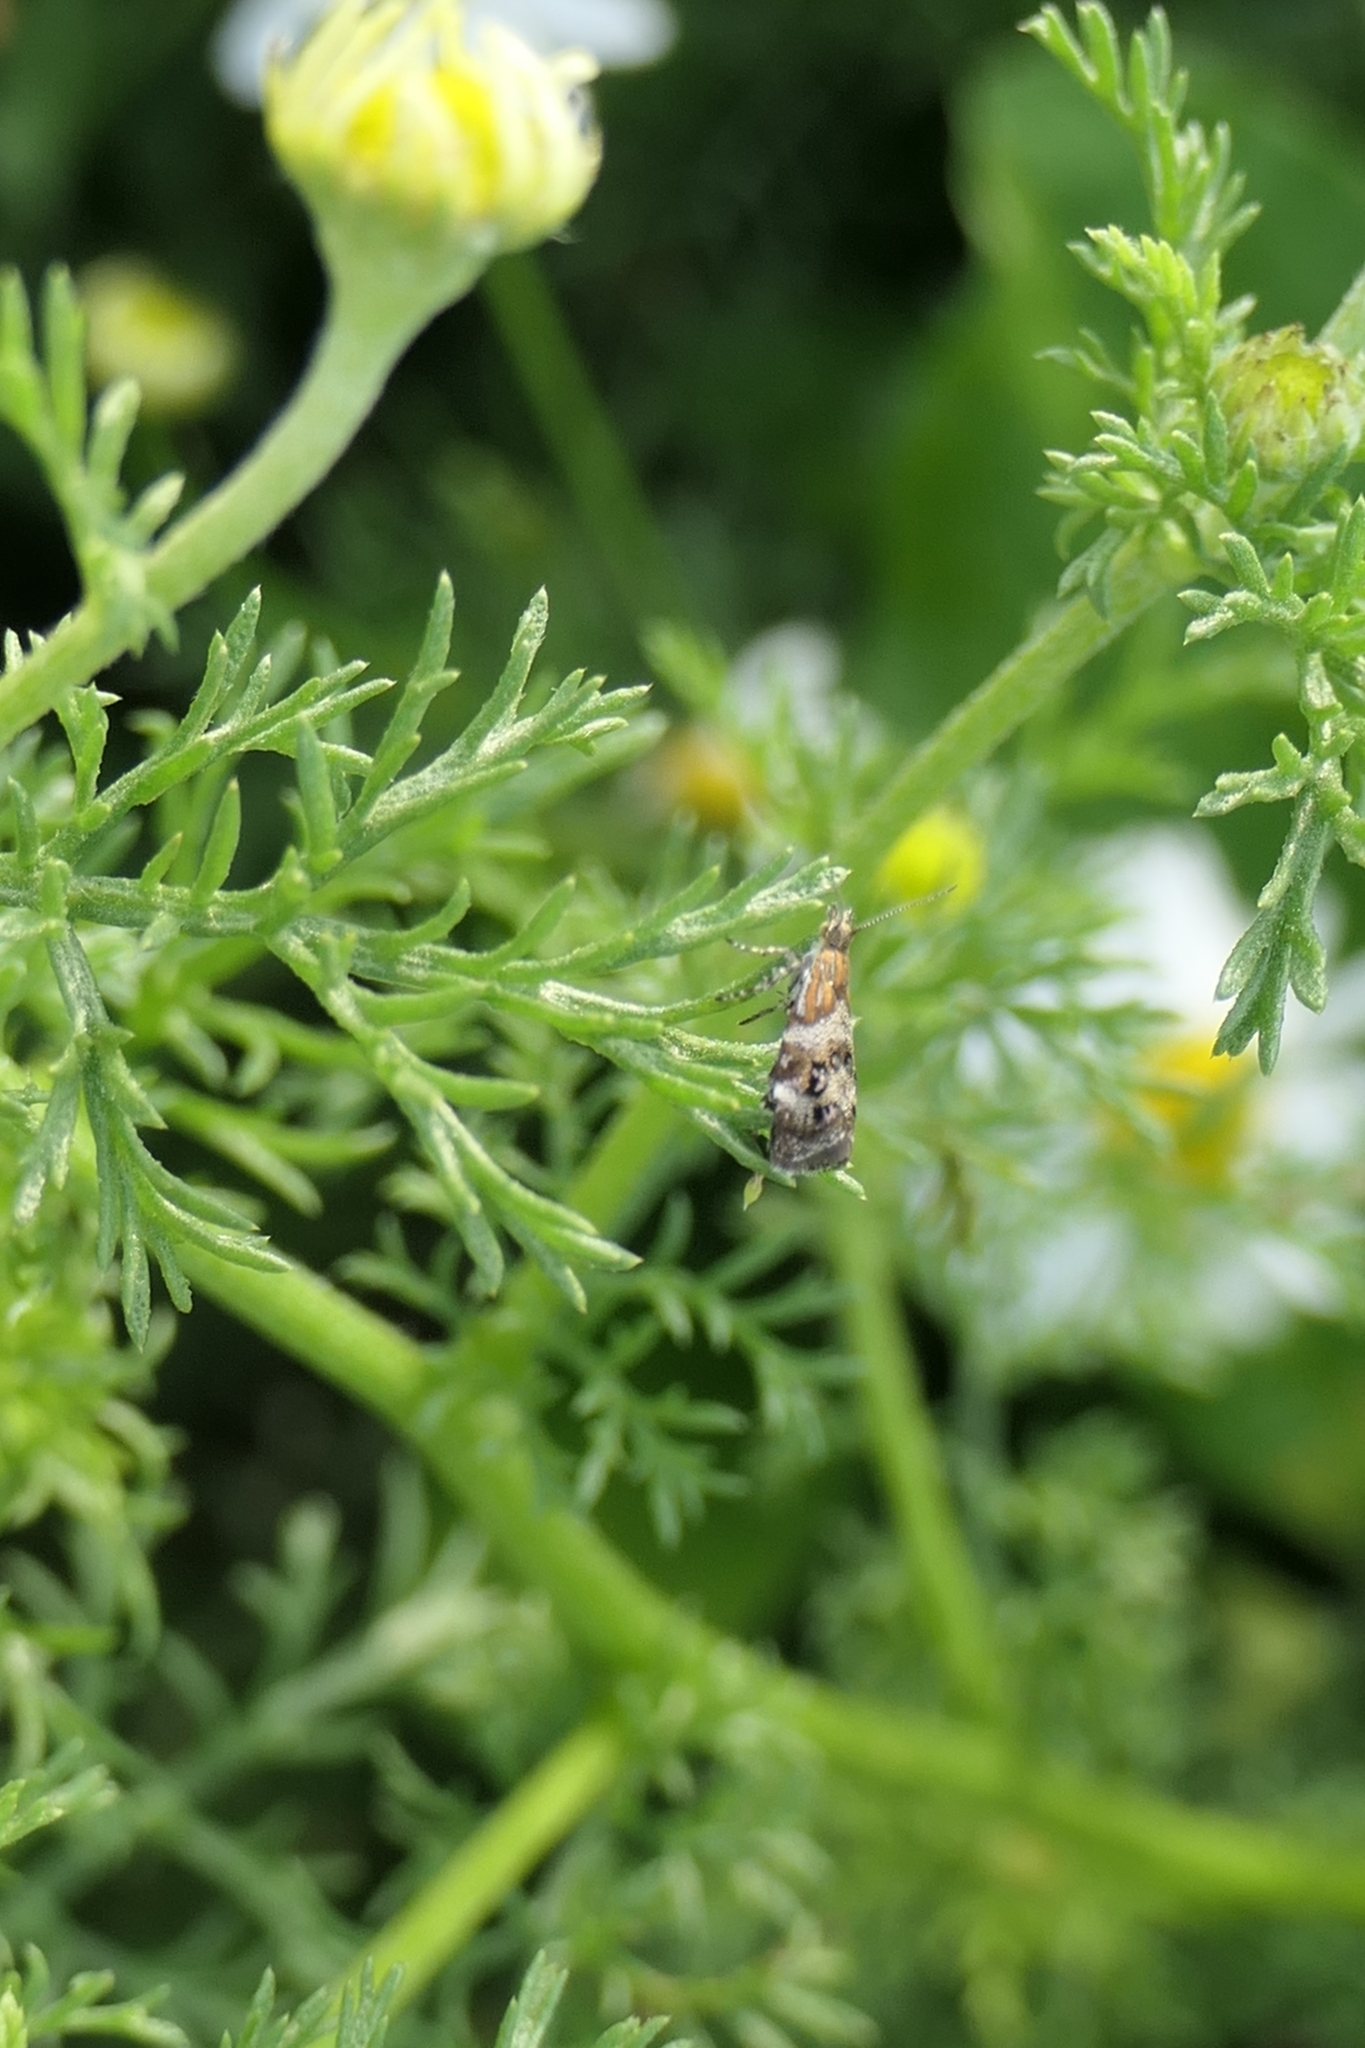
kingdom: Animalia
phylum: Arthropoda
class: Insecta
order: Lepidoptera
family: Choreutidae
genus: Tebenna
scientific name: Tebenna micalis
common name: Vagrant twitcher
